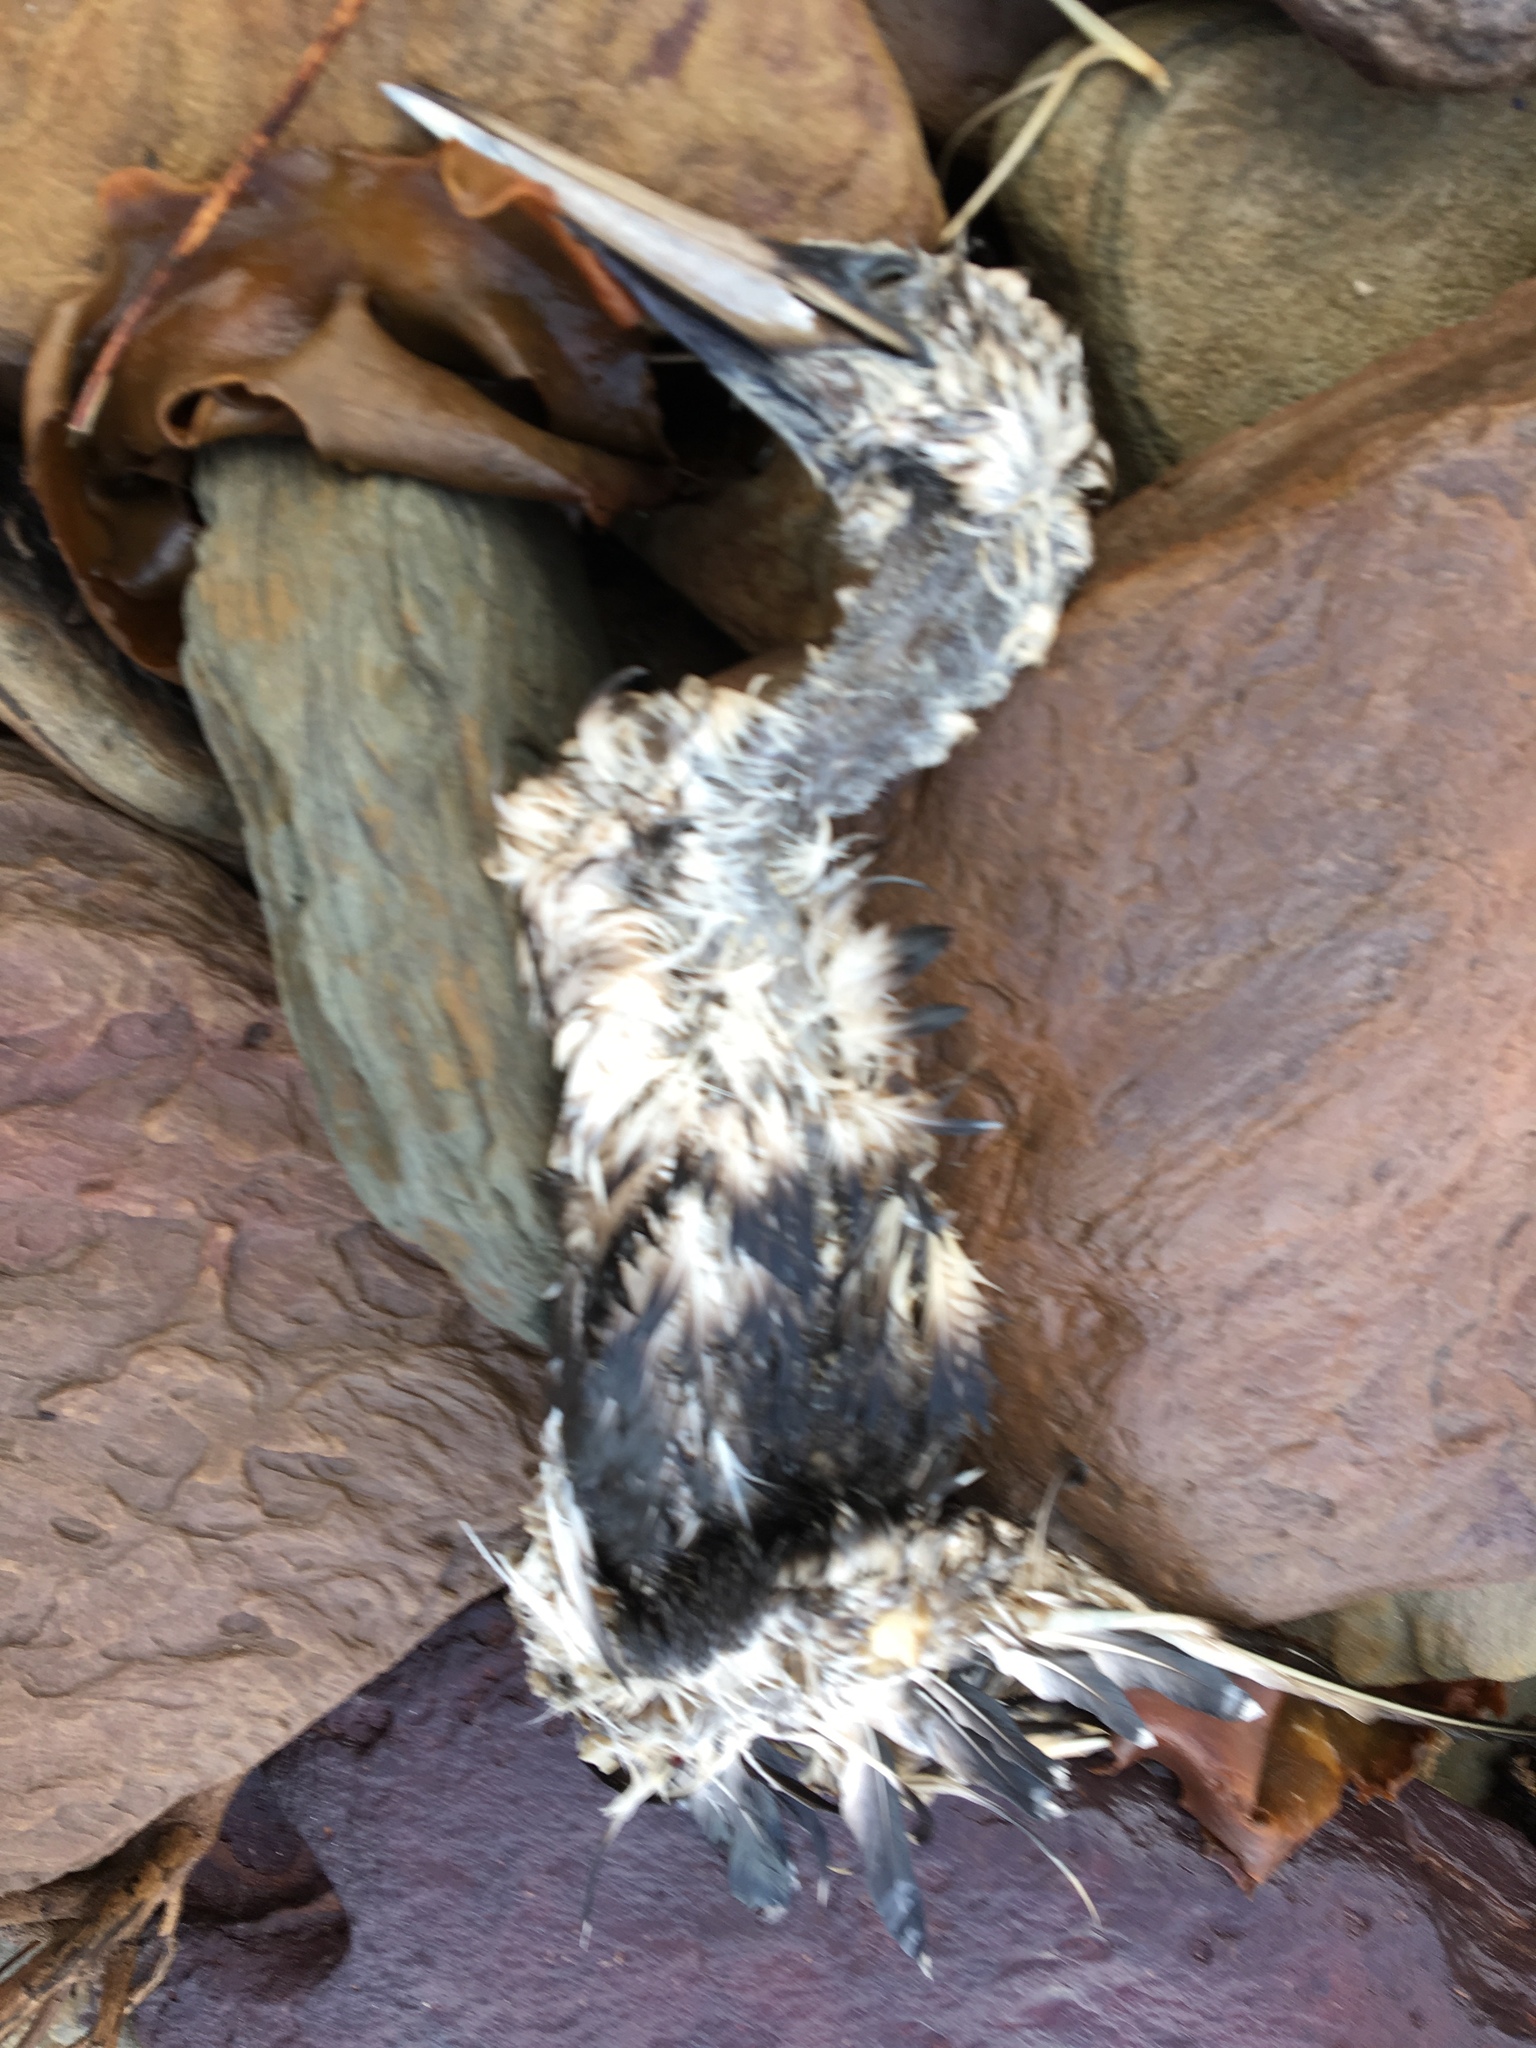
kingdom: Animalia
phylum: Chordata
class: Aves
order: Suliformes
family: Sulidae
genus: Morus
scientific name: Morus serrator
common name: Australasian gannet
